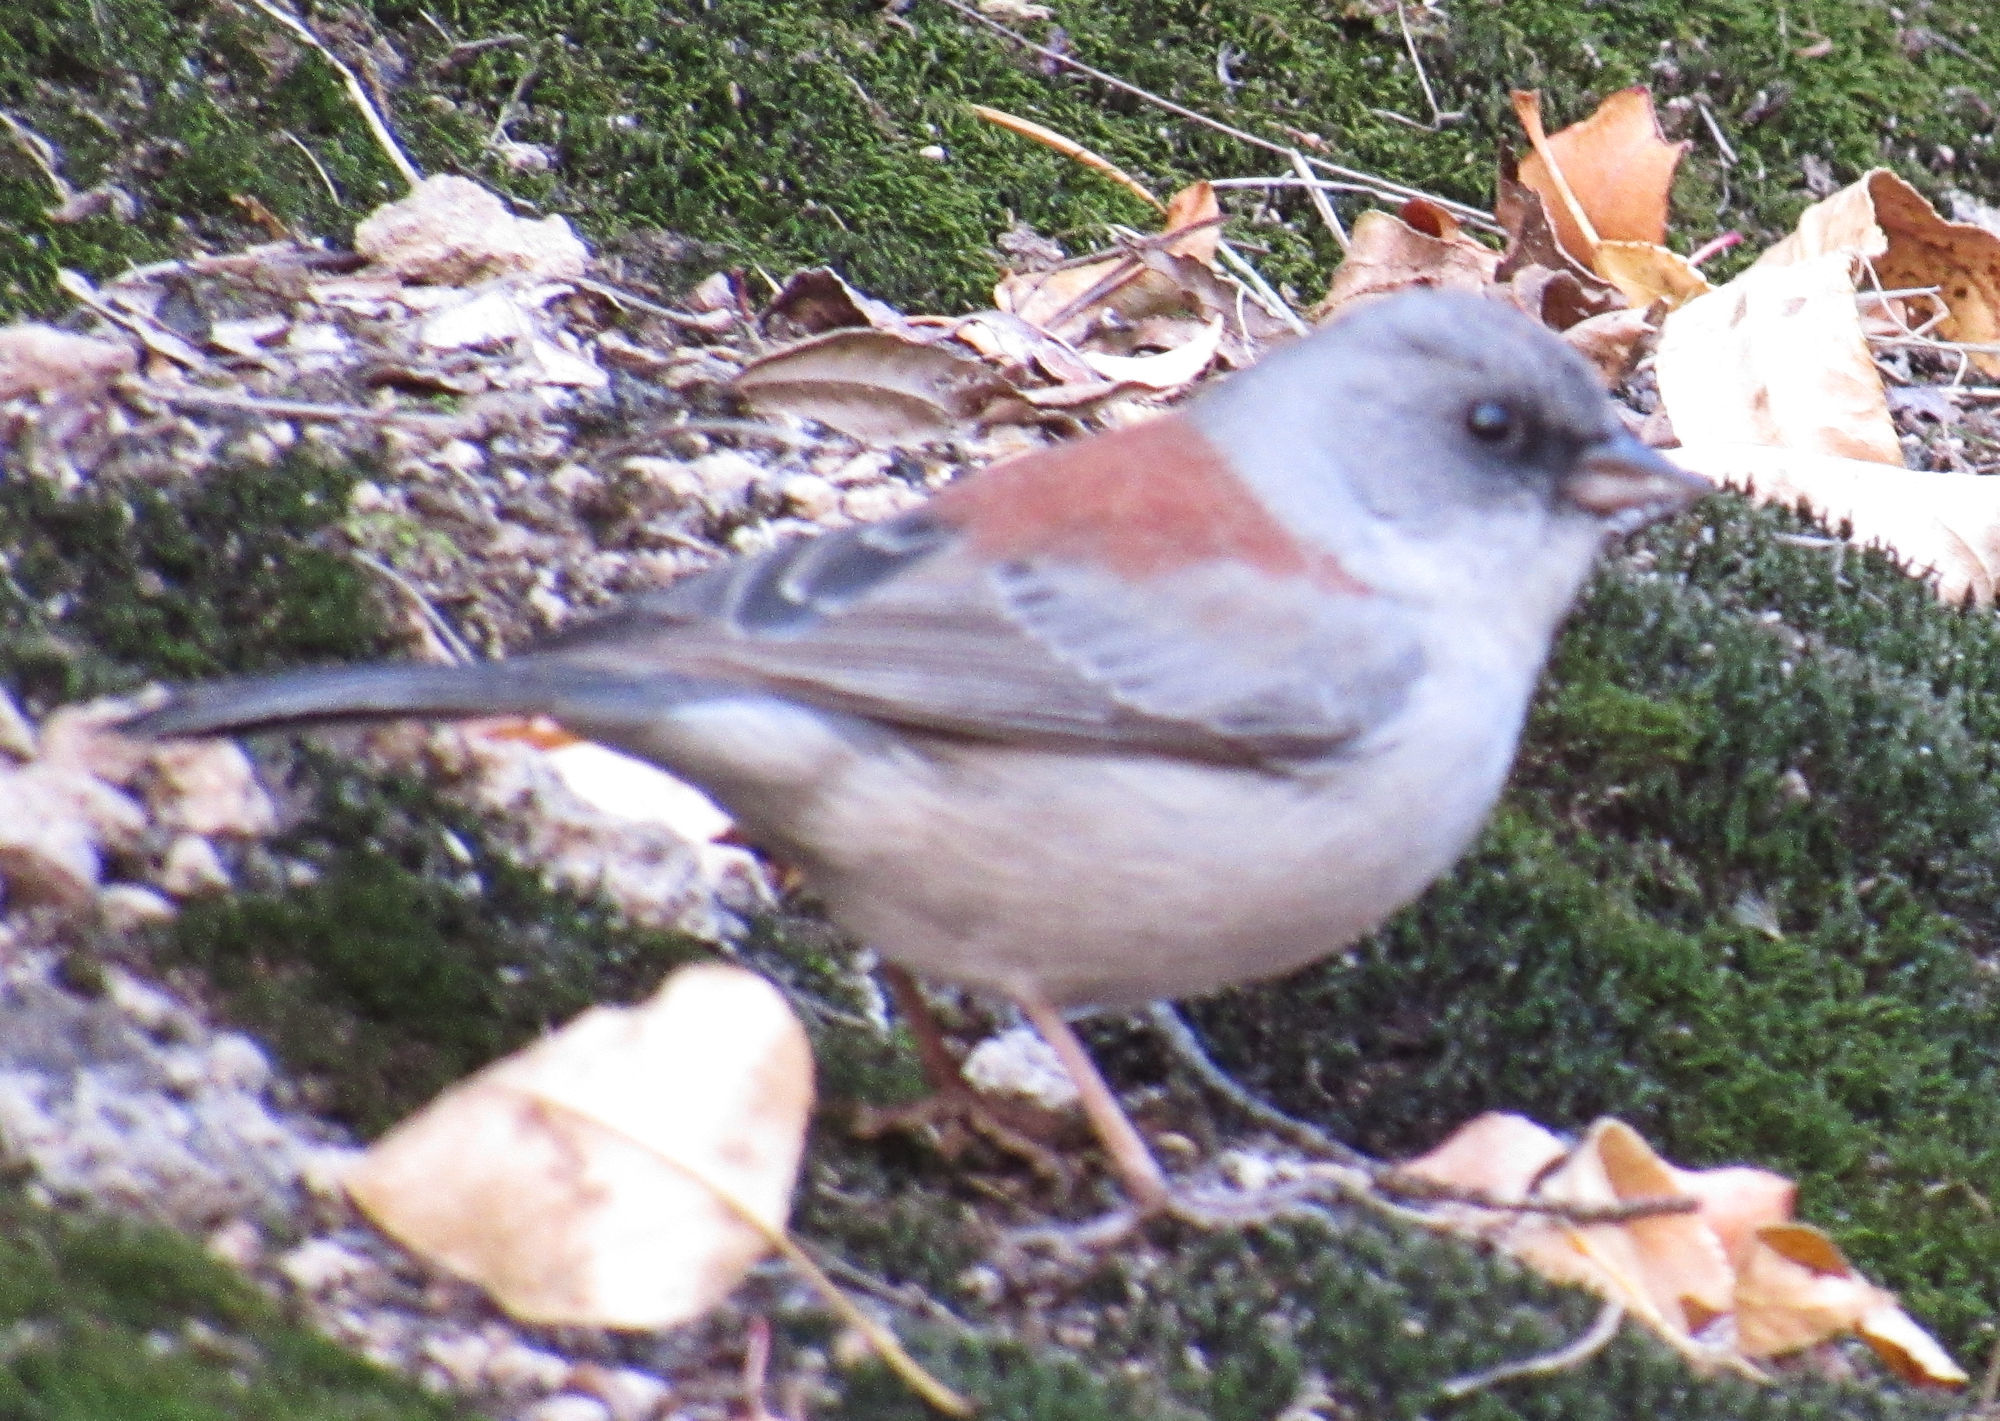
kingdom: Animalia
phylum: Chordata
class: Aves
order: Passeriformes
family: Passerellidae
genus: Junco
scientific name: Junco hyemalis
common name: Dark-eyed junco
